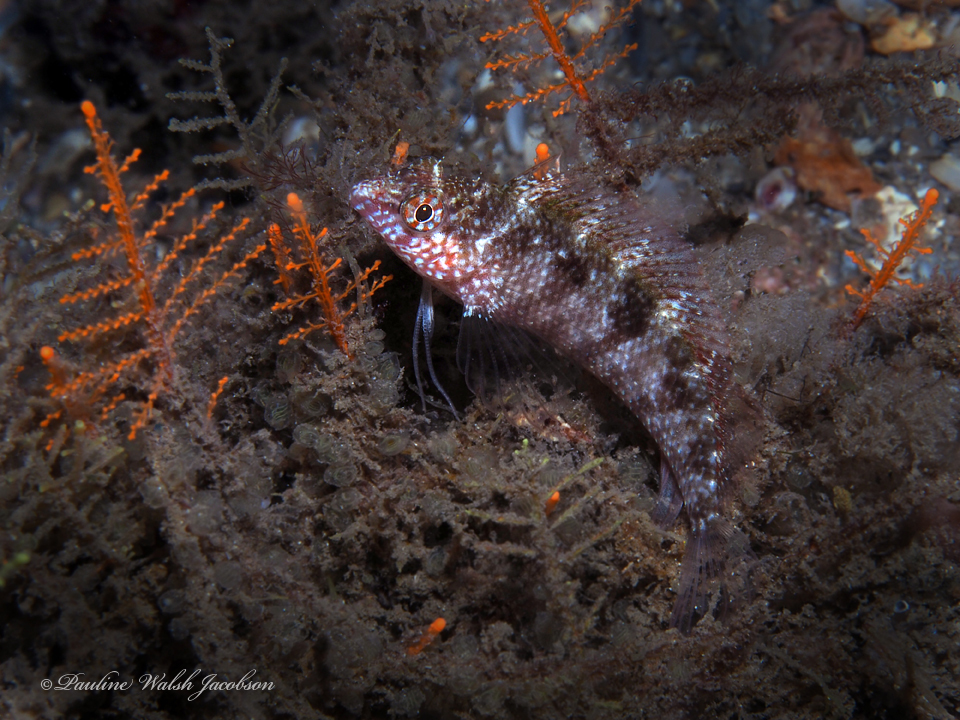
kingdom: Animalia
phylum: Chordata
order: Perciformes
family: Labrisomidae
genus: Malacoctenus
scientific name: Malacoctenus macropus
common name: Rosy blenny
